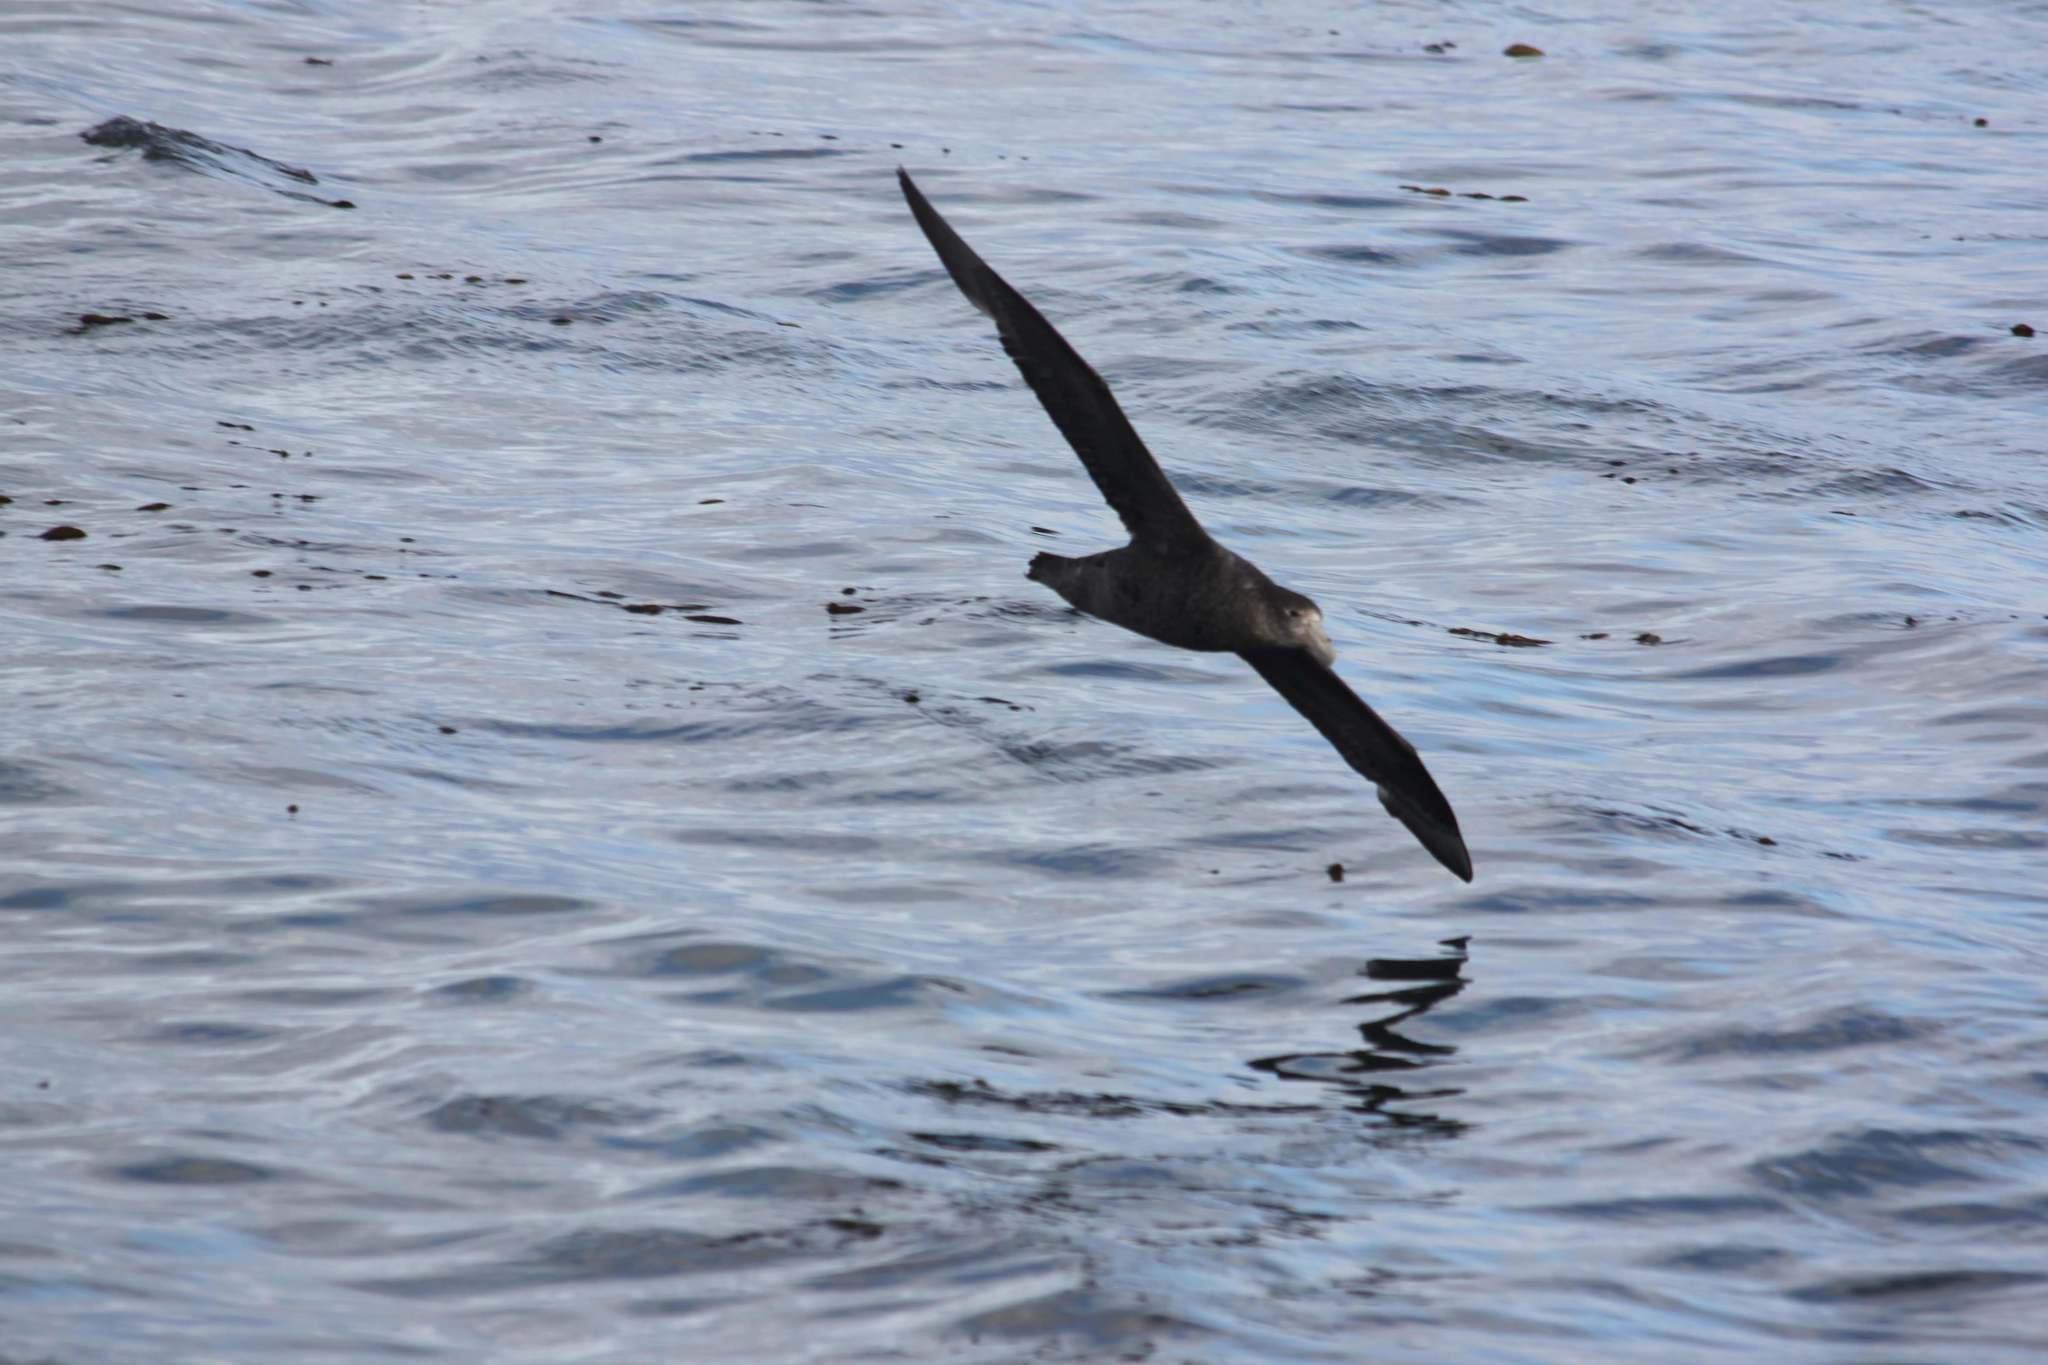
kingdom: Animalia
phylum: Chordata
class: Aves
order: Procellariiformes
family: Procellariidae
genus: Macronectes
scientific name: Macronectes giganteus
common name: Southern giant petrel
